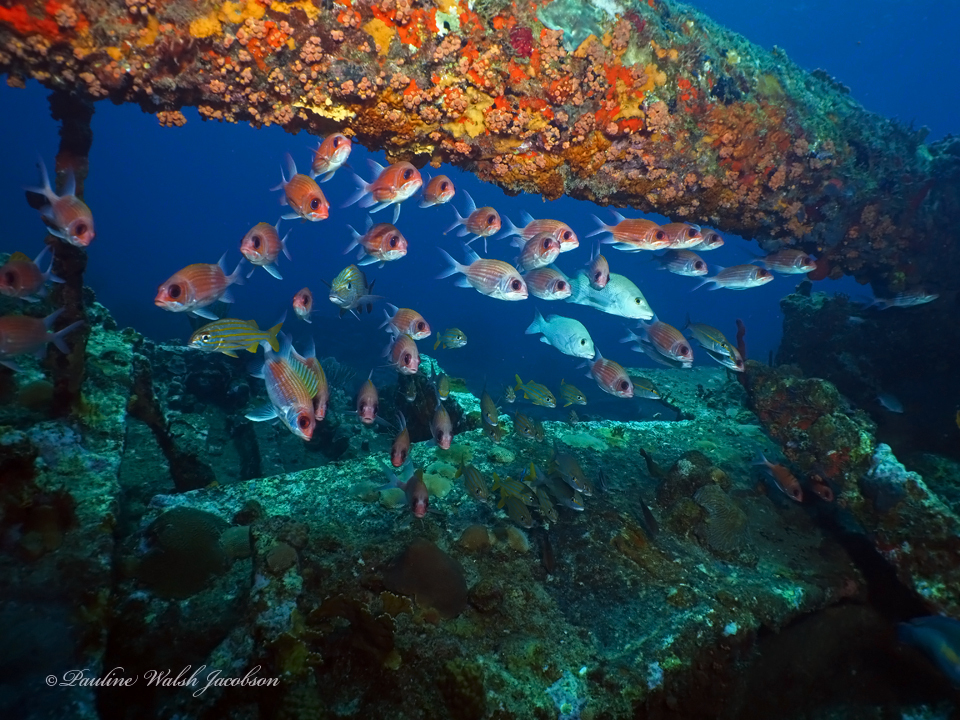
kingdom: Animalia
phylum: Chordata
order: Perciformes
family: Haemulidae
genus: Haemulon
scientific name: Haemulon chrysargyreum
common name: Smallmouth grunt
